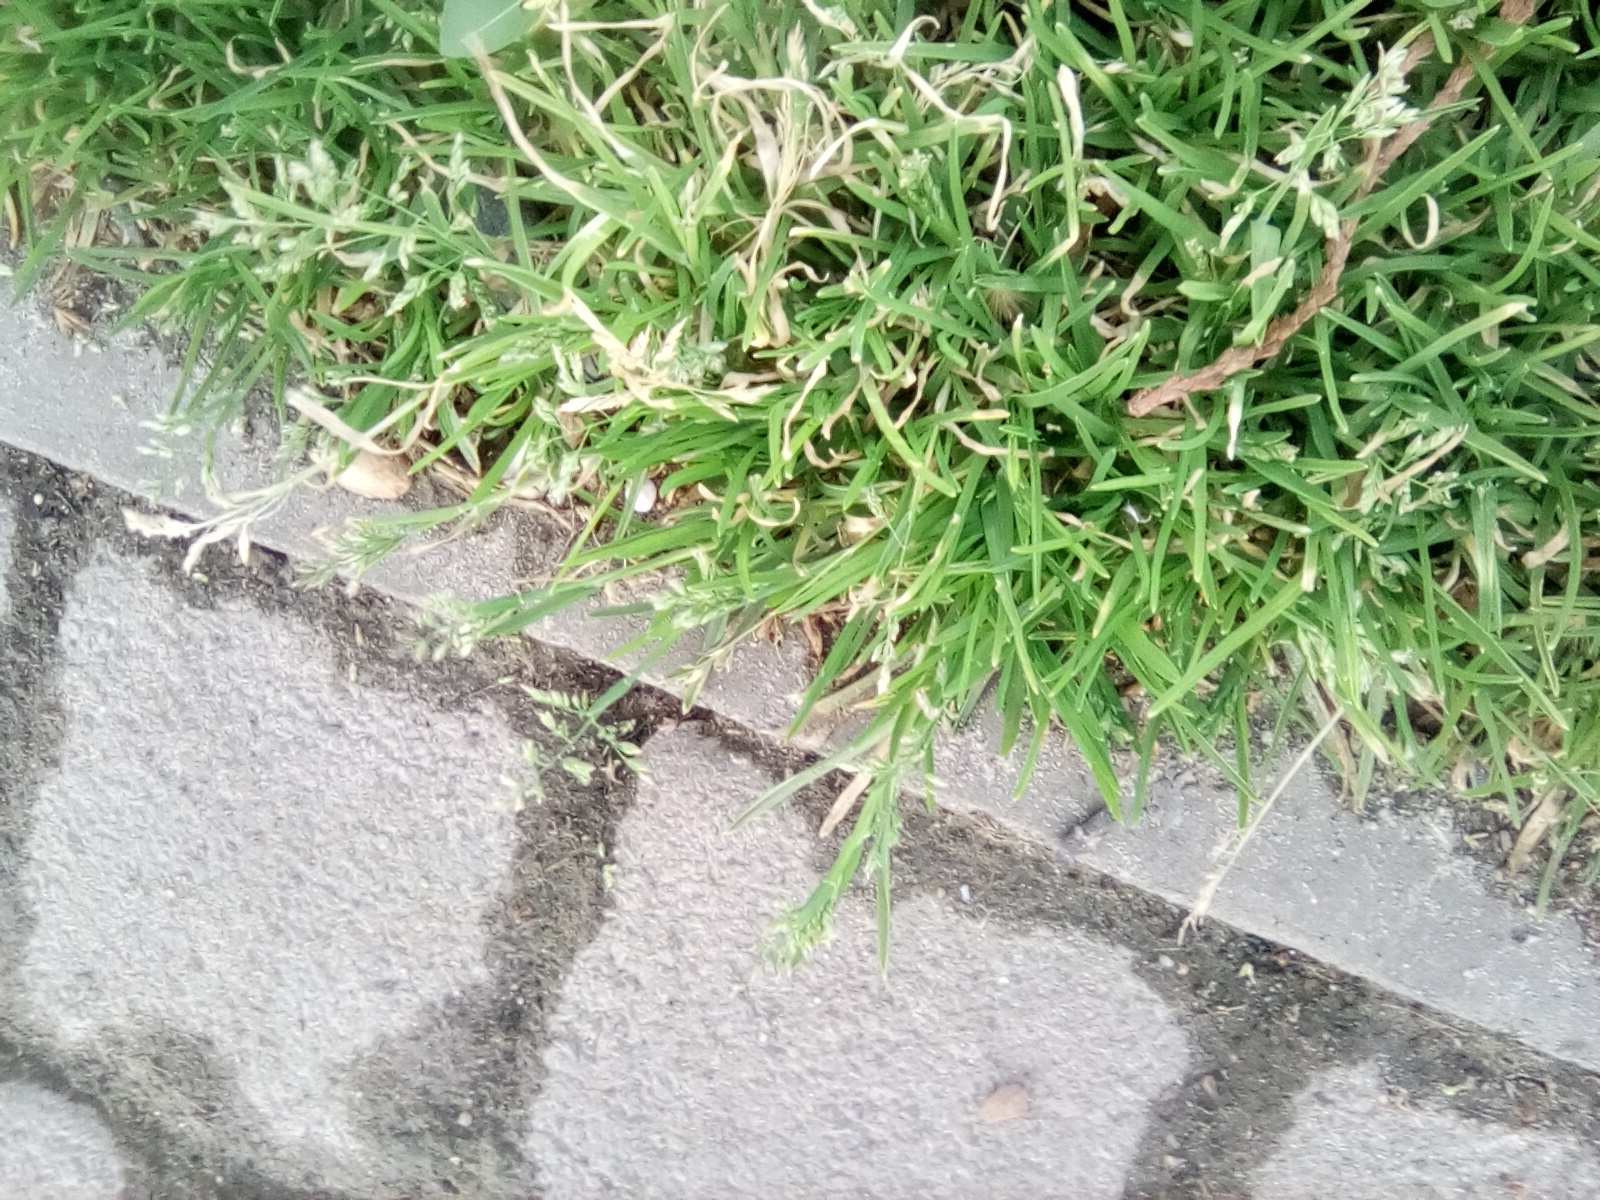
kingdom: Plantae
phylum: Tracheophyta
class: Liliopsida
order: Poales
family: Poaceae
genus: Poa
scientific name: Poa annua
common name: Annual bluegrass
